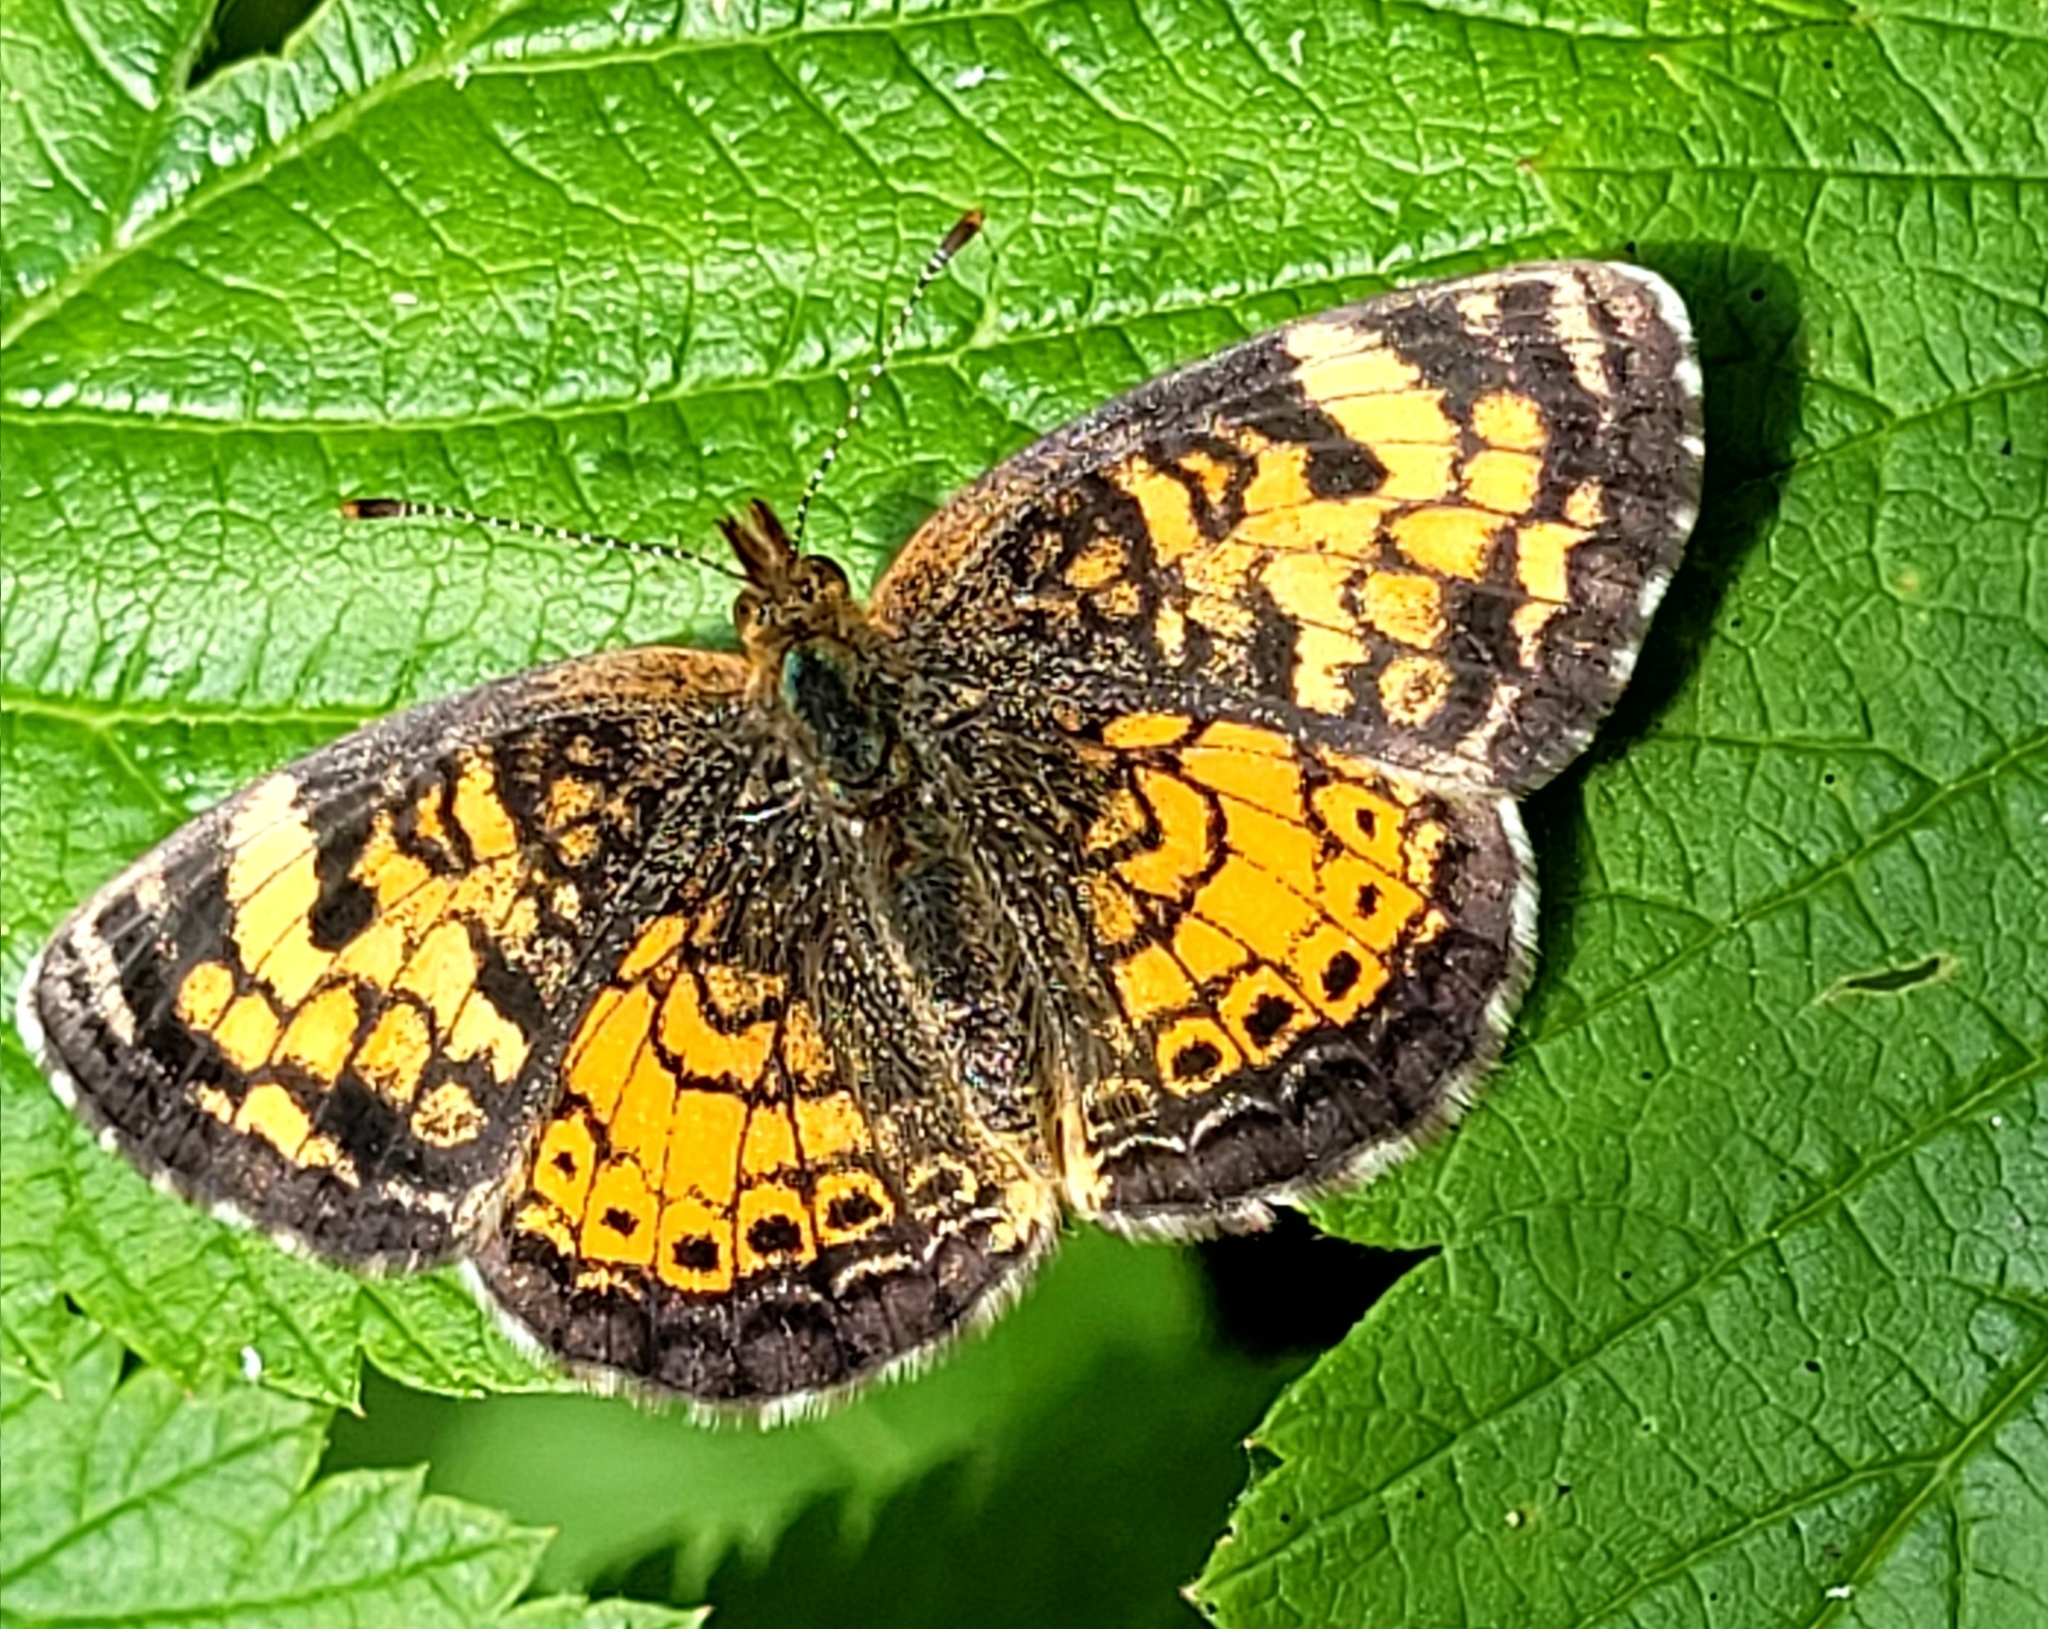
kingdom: Animalia
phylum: Arthropoda
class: Insecta
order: Lepidoptera
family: Nymphalidae
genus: Phyciodes
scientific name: Phyciodes tharos
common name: Pearl crescent
